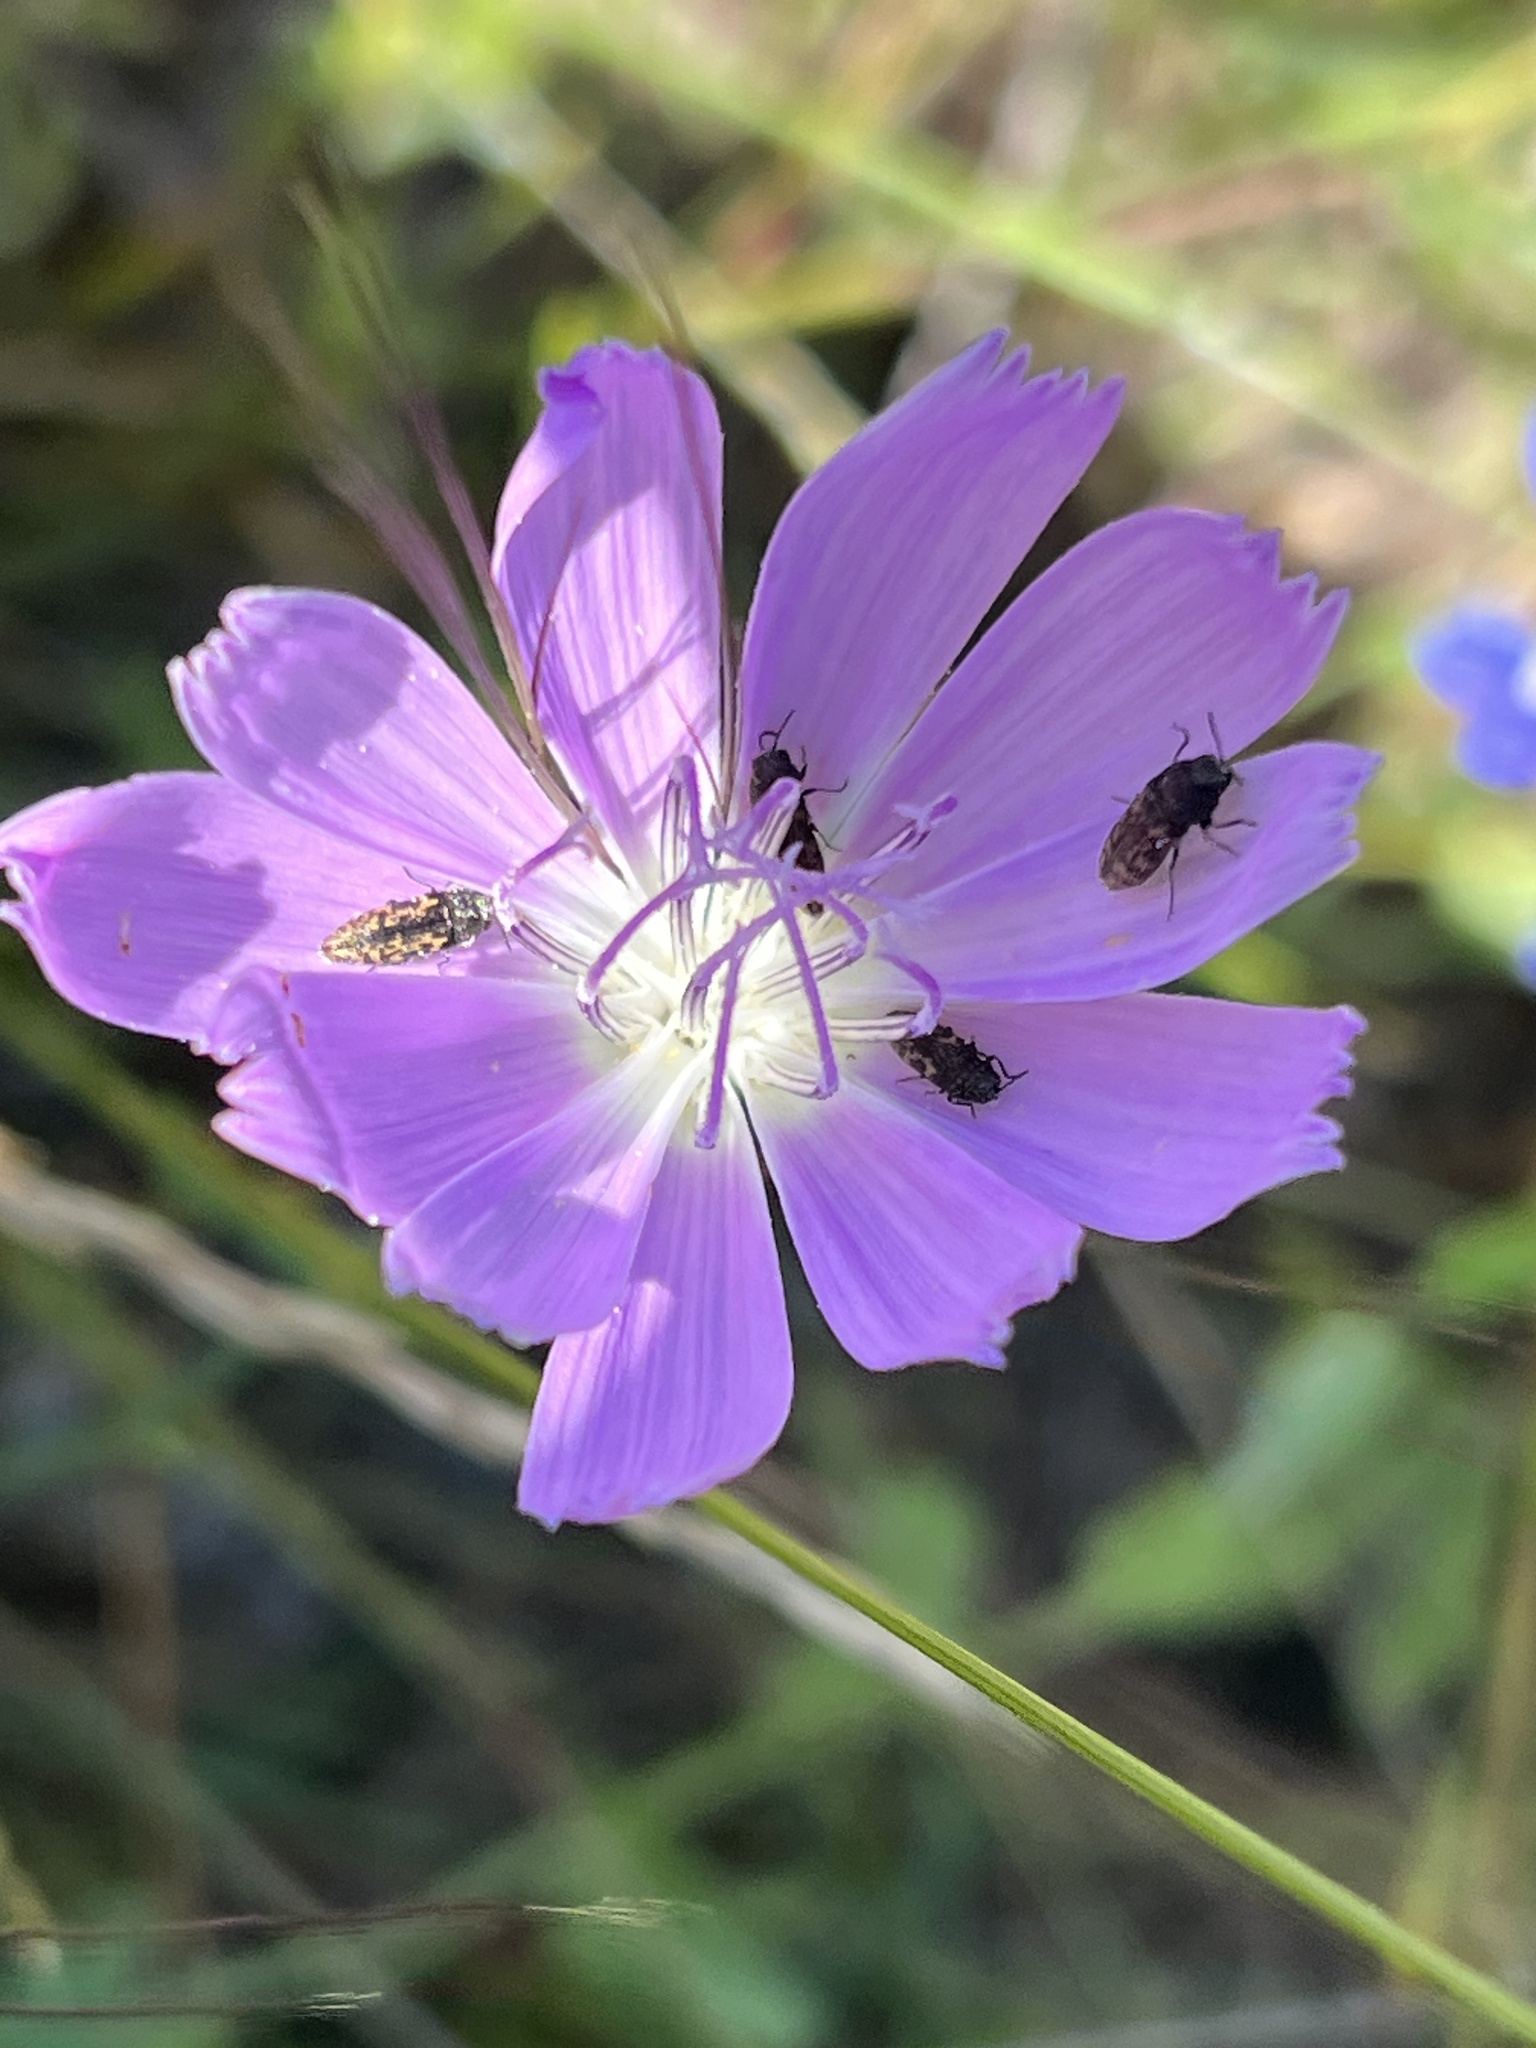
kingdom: Plantae
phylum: Tracheophyta
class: Magnoliopsida
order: Asterales
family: Asteraceae
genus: Lygodesmia
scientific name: Lygodesmia texana
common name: Texas skeleton-plant
